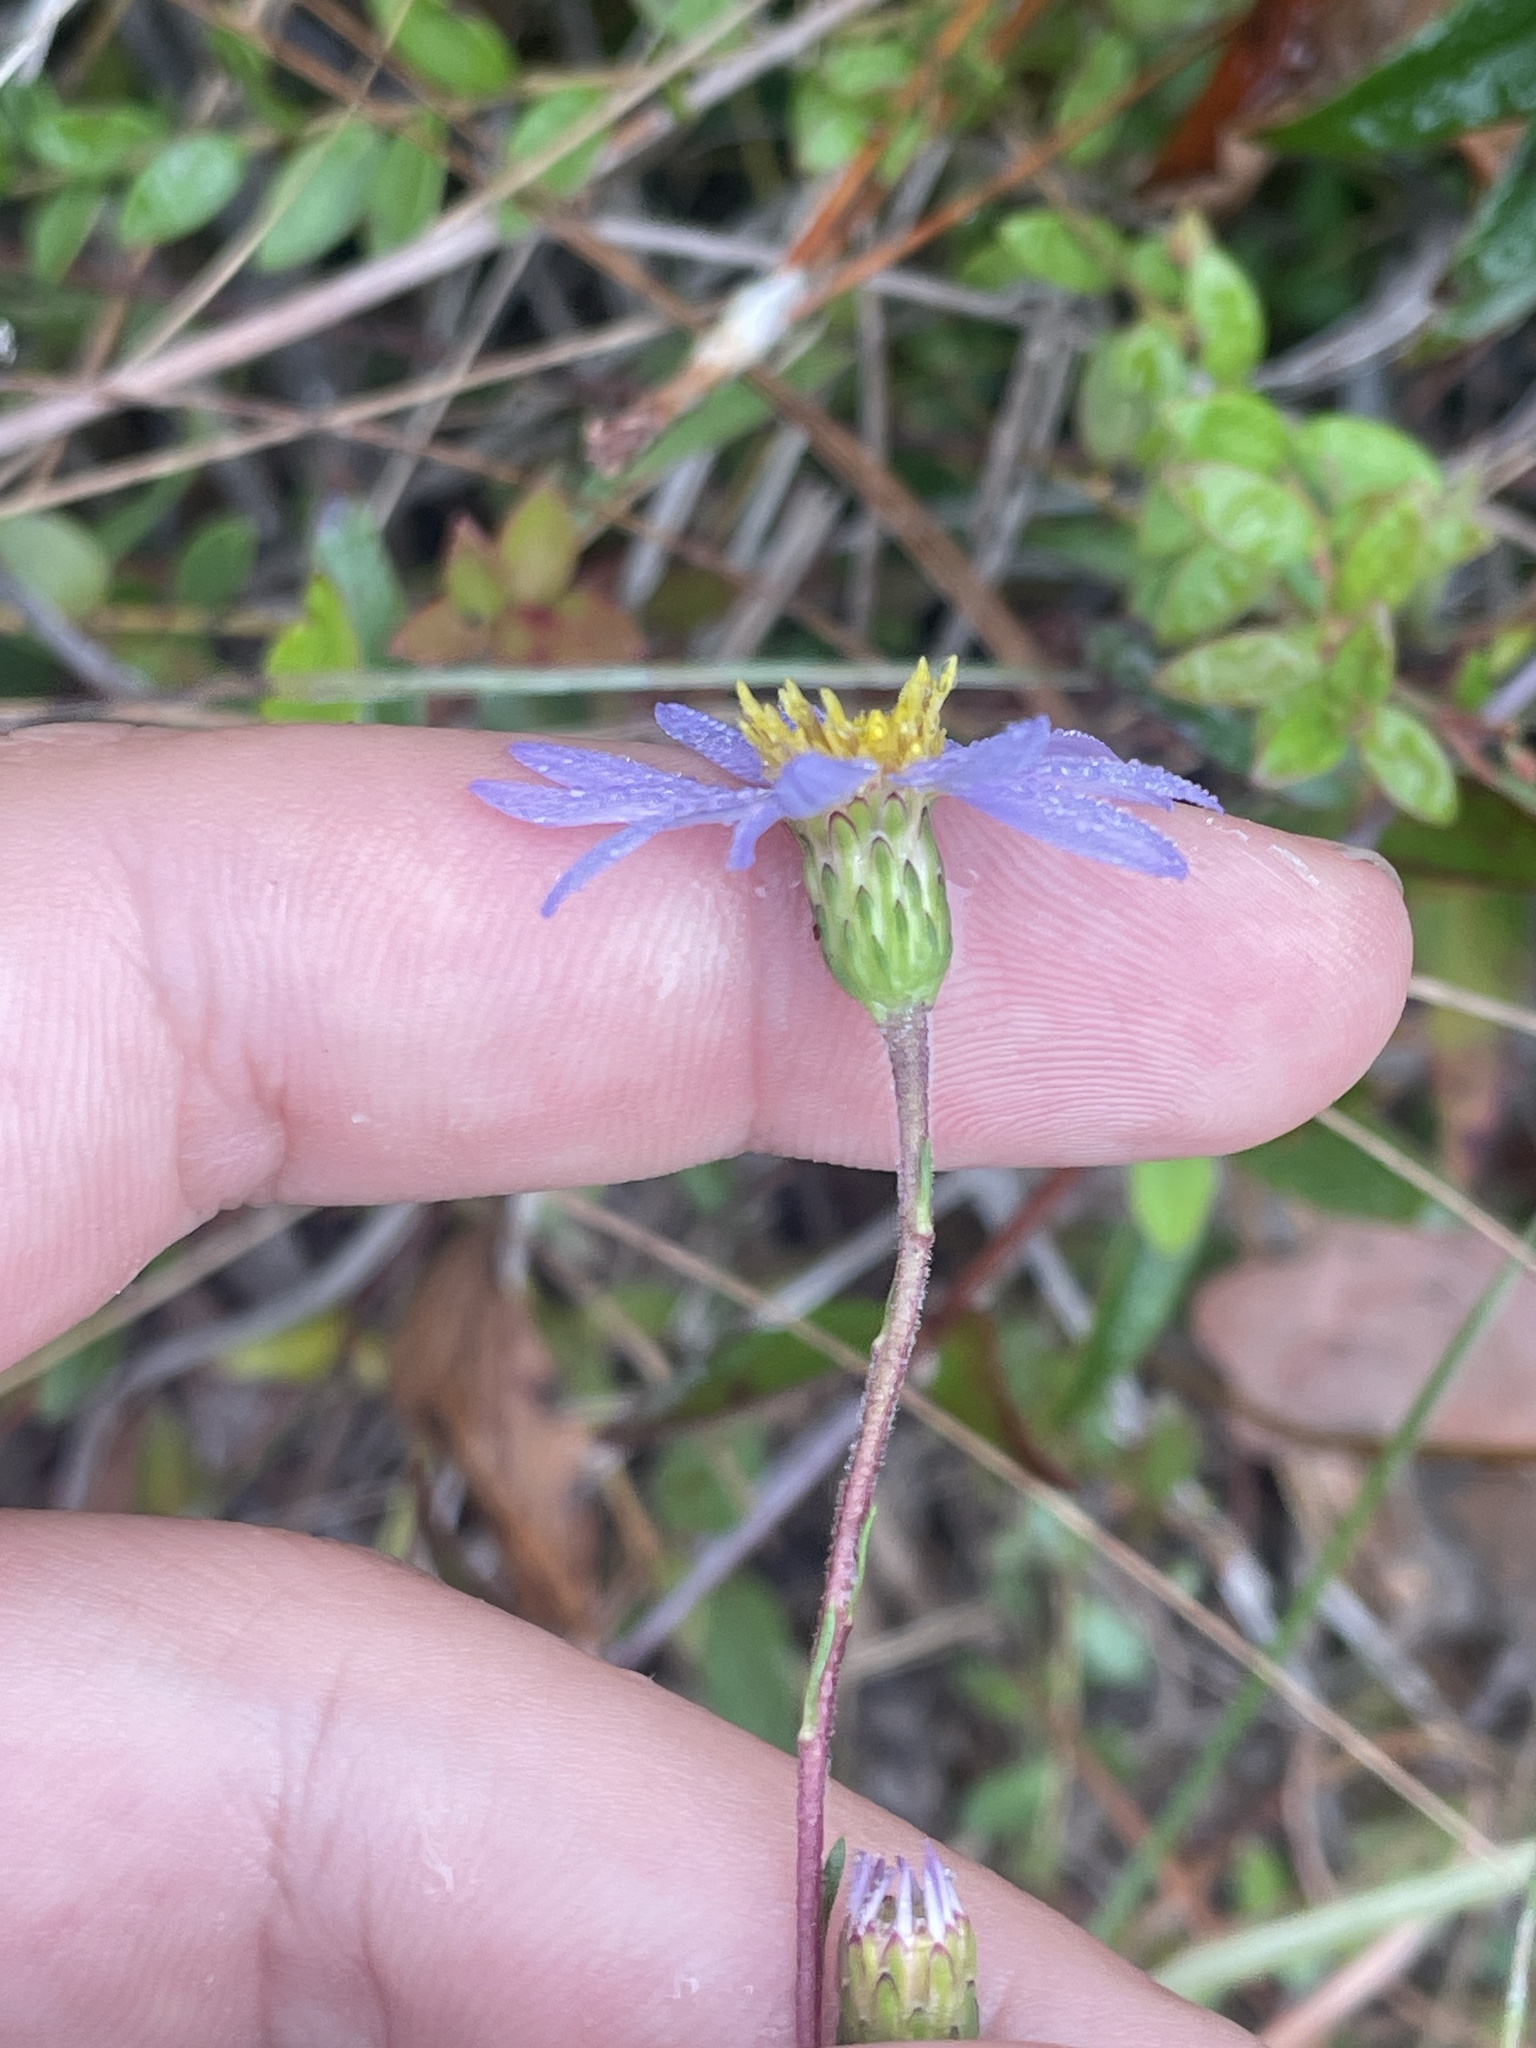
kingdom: Plantae
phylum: Tracheophyta
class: Magnoliopsida
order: Asterales
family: Asteraceae
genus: Ionactis
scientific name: Ionactis linariifolia
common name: Flax-leaf aster
